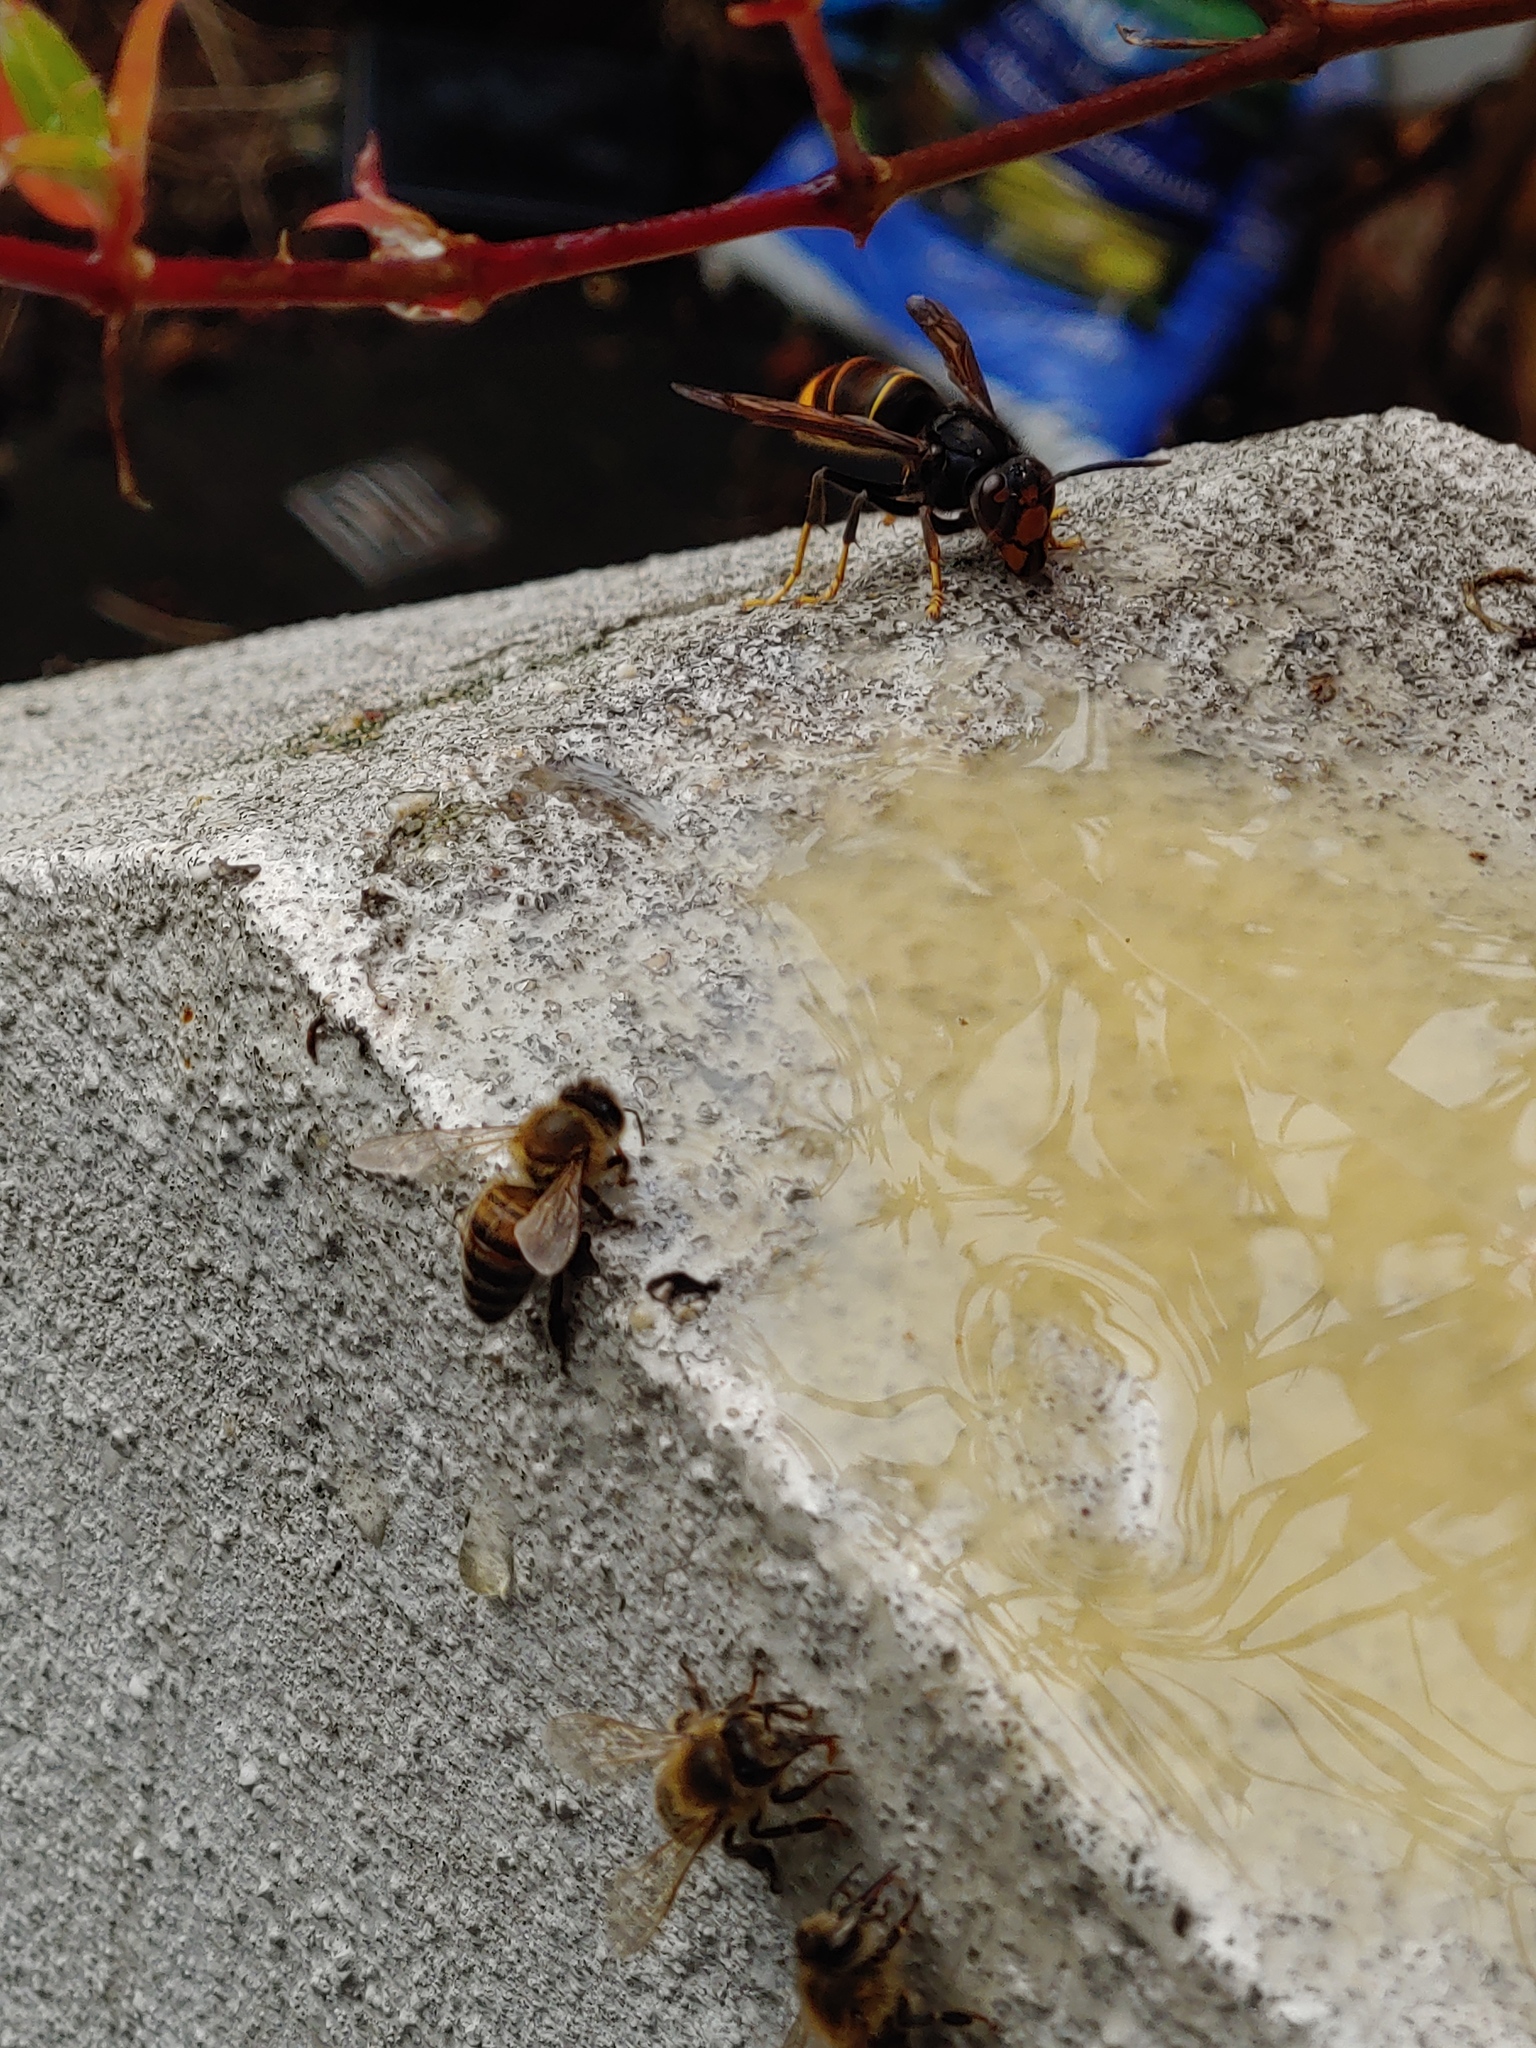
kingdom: Animalia
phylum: Arthropoda
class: Insecta
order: Hymenoptera
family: Vespidae
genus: Vespa
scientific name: Vespa velutina
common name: Asian hornet
